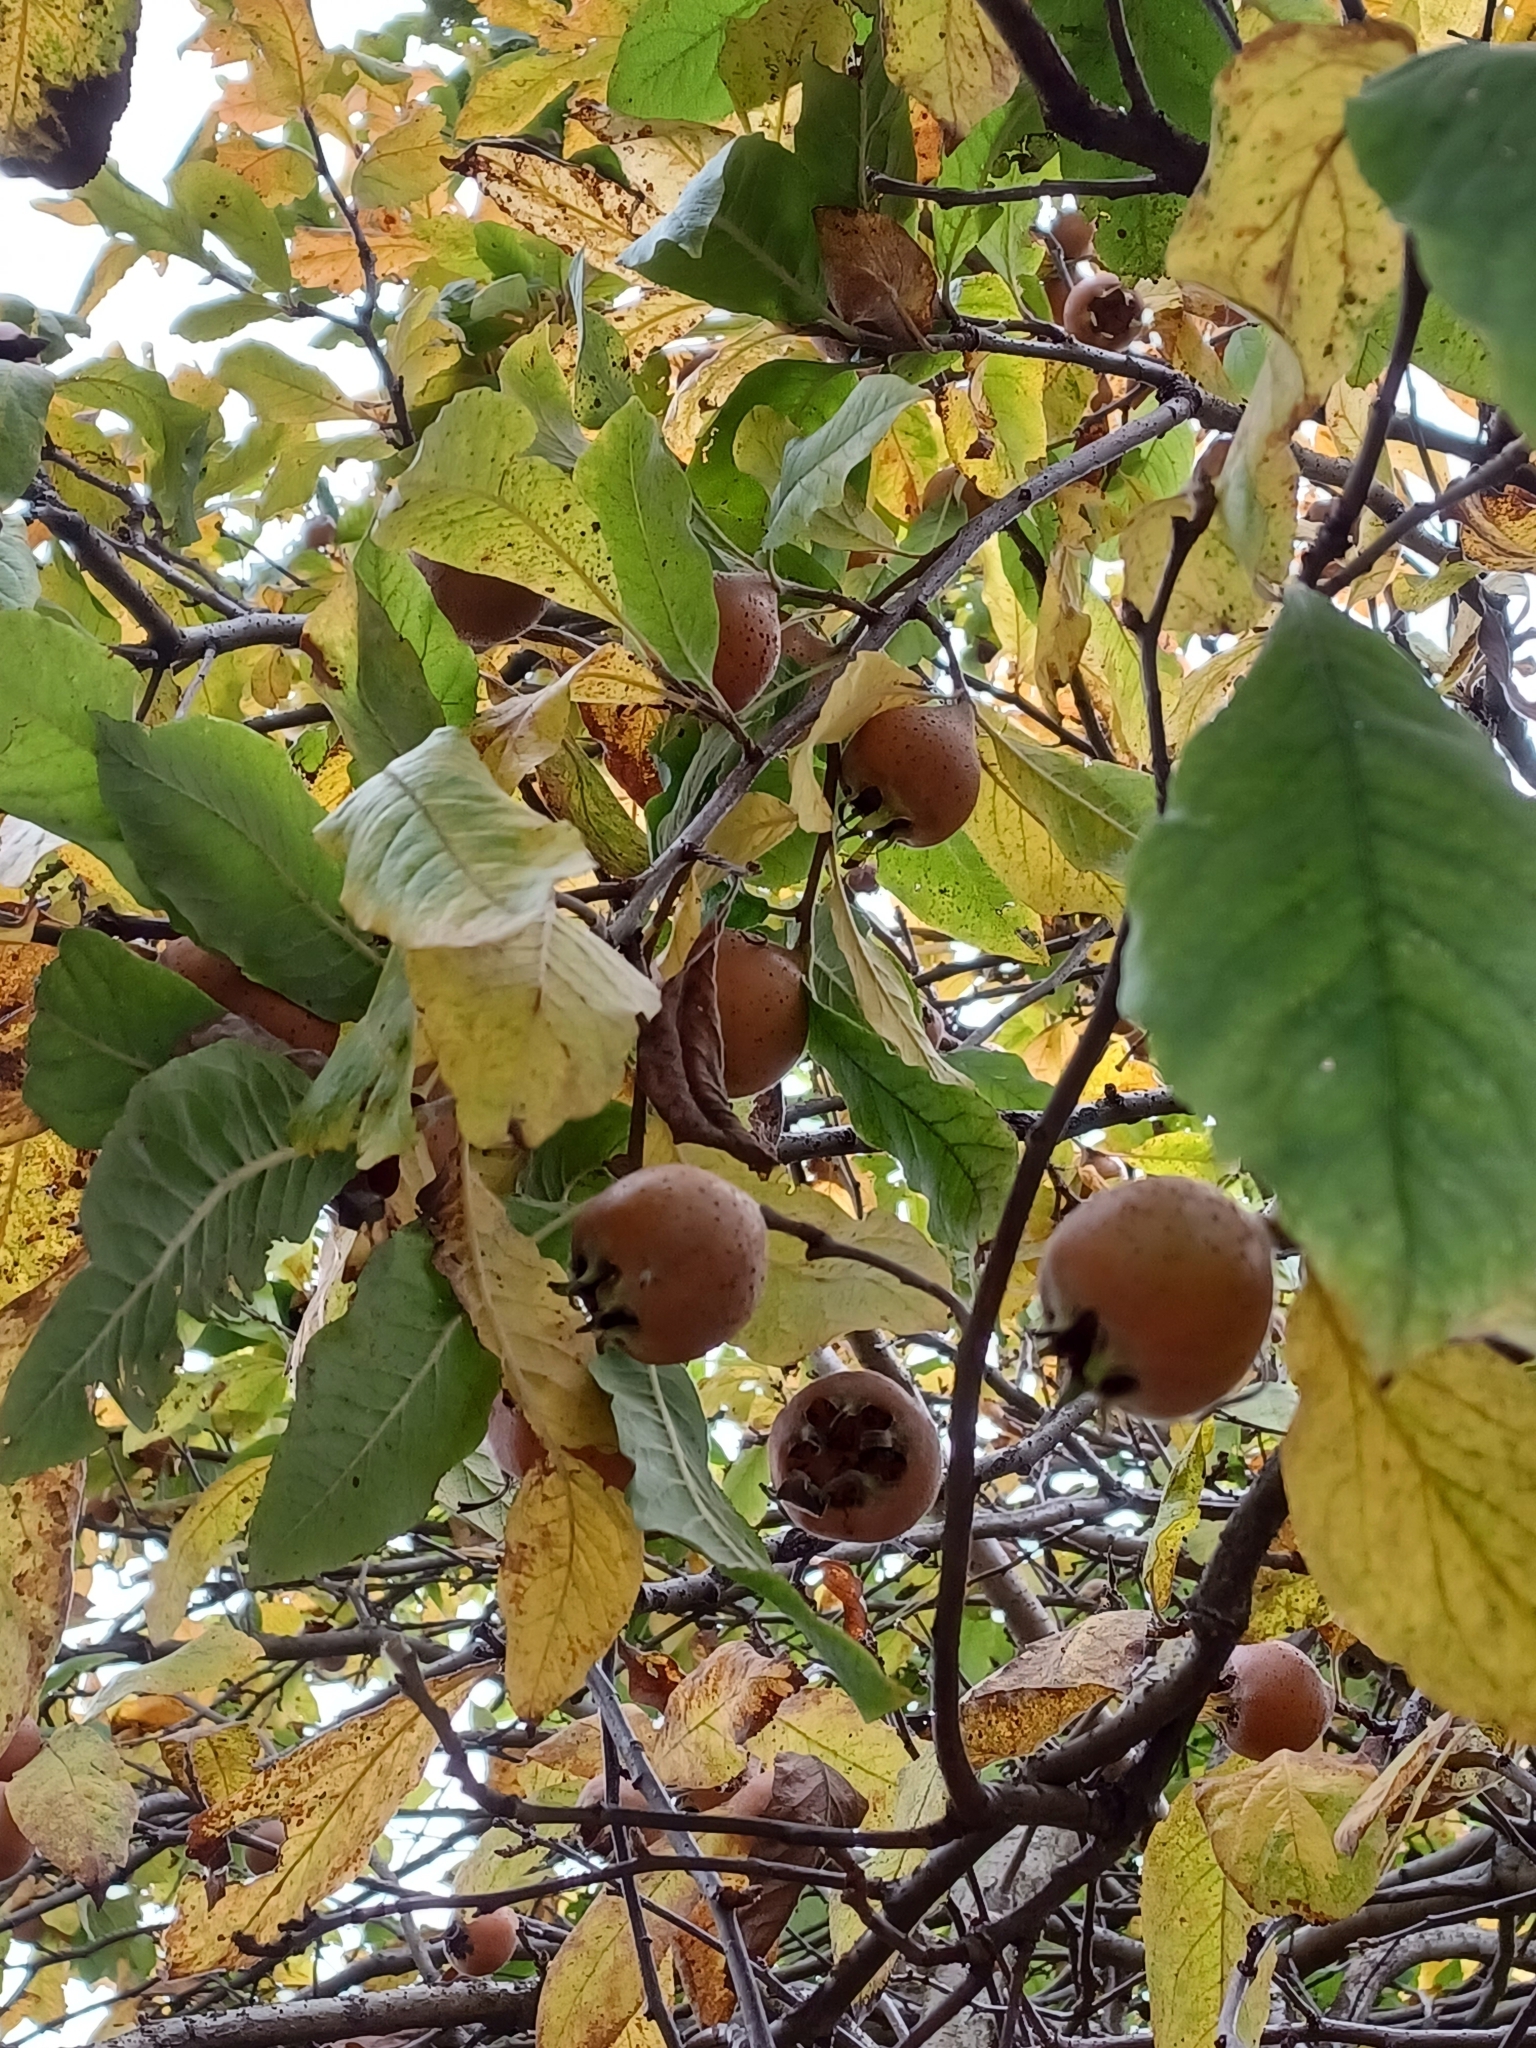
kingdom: Plantae
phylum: Tracheophyta
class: Magnoliopsida
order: Rosales
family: Rosaceae
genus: Mespilus
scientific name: Mespilus germanica
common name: Medlar
